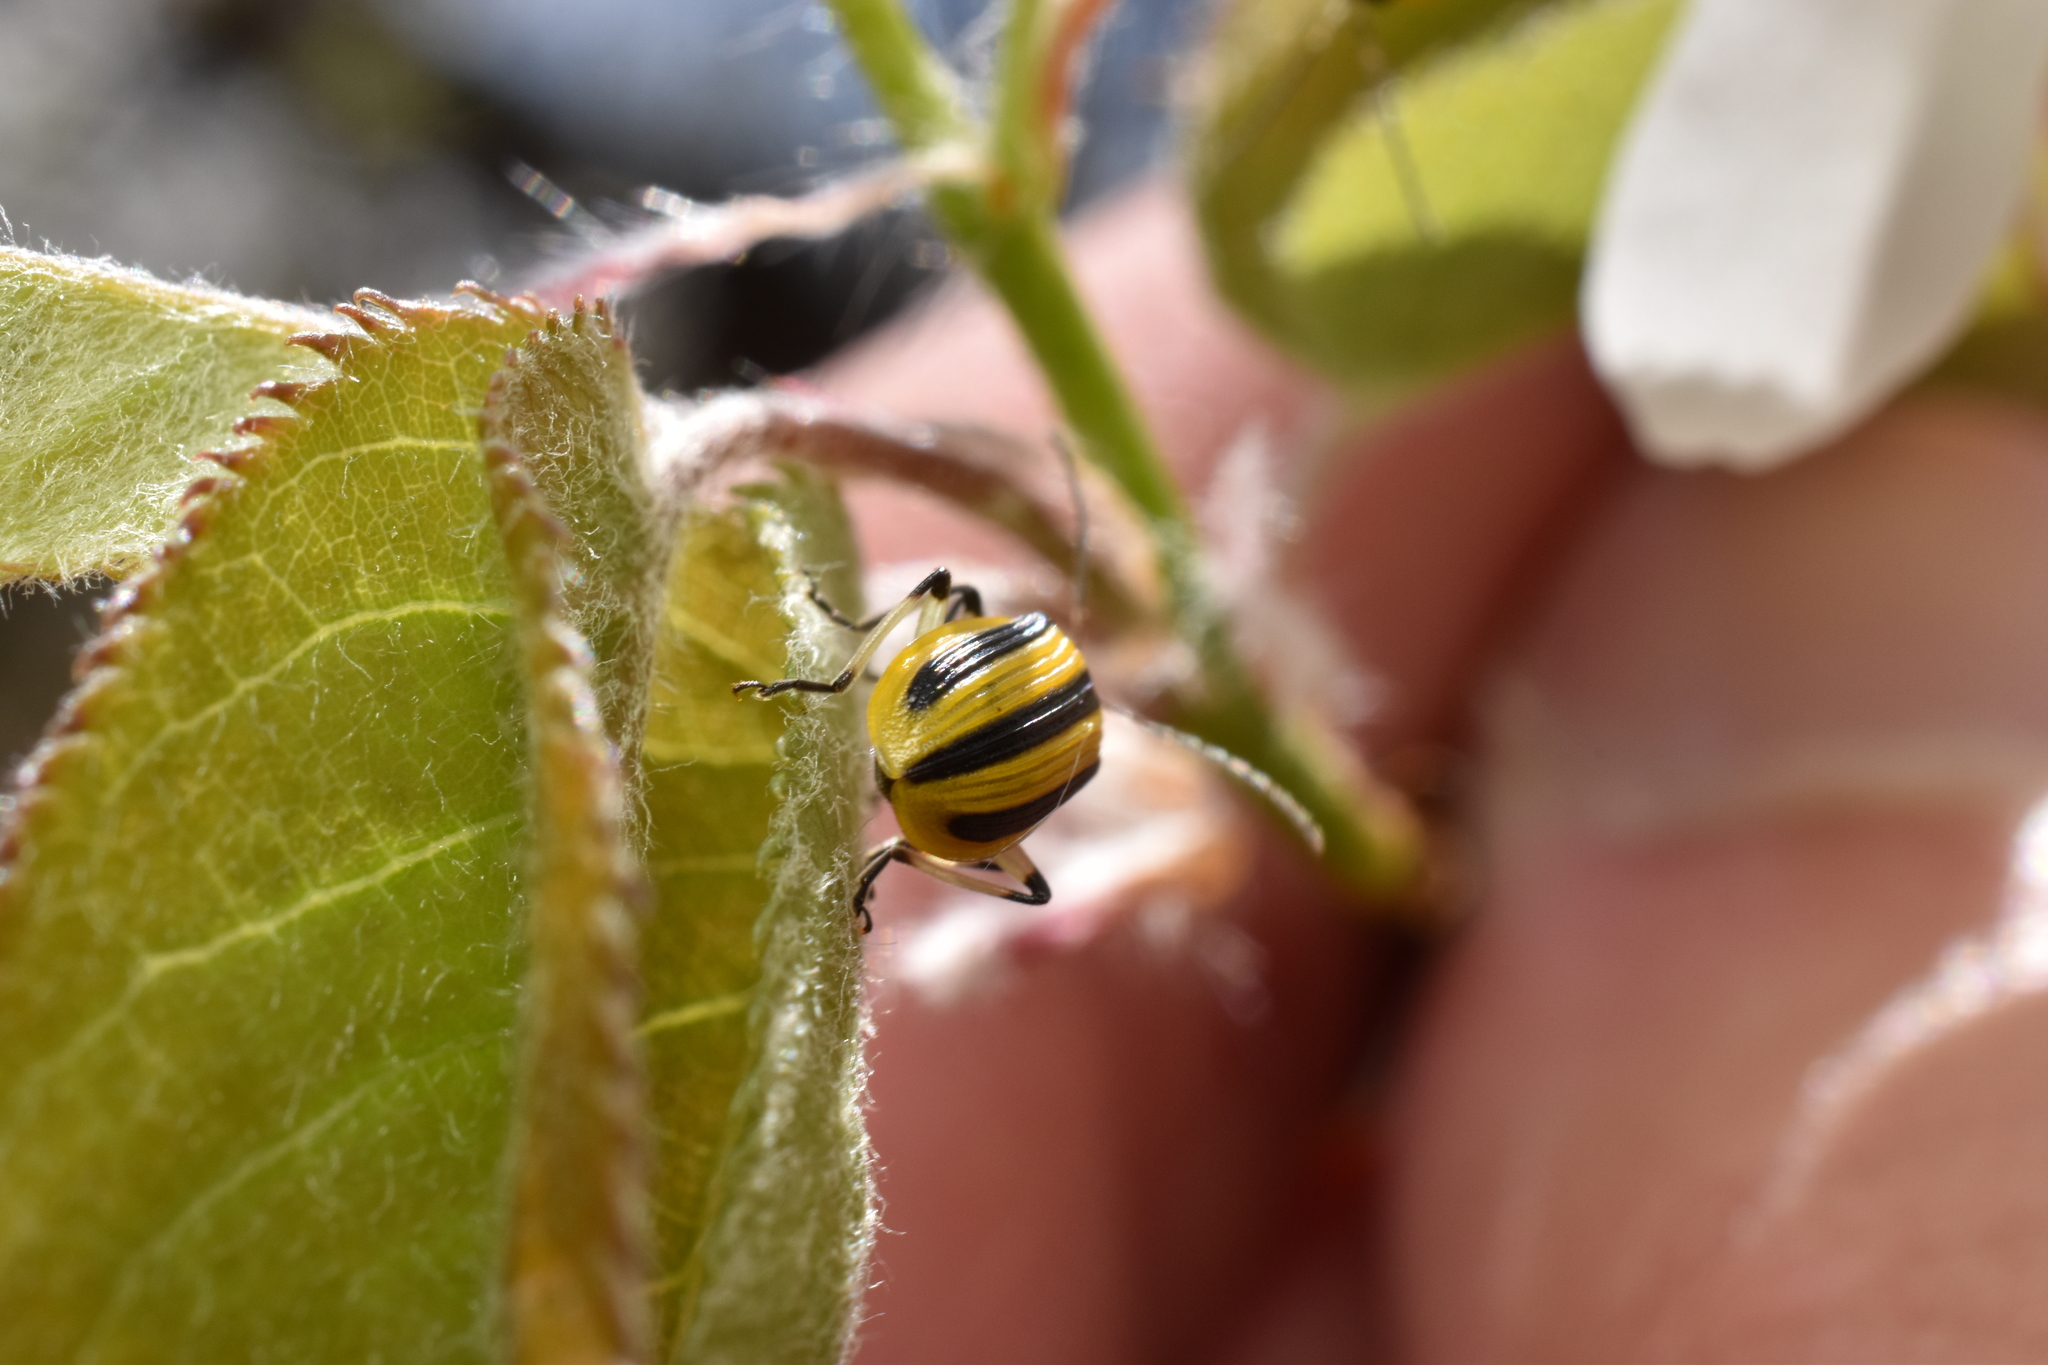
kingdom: Animalia
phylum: Arthropoda
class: Insecta
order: Coleoptera
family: Chrysomelidae
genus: Acalymma
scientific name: Acalymma vittatum
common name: Striped cucumber beetle
